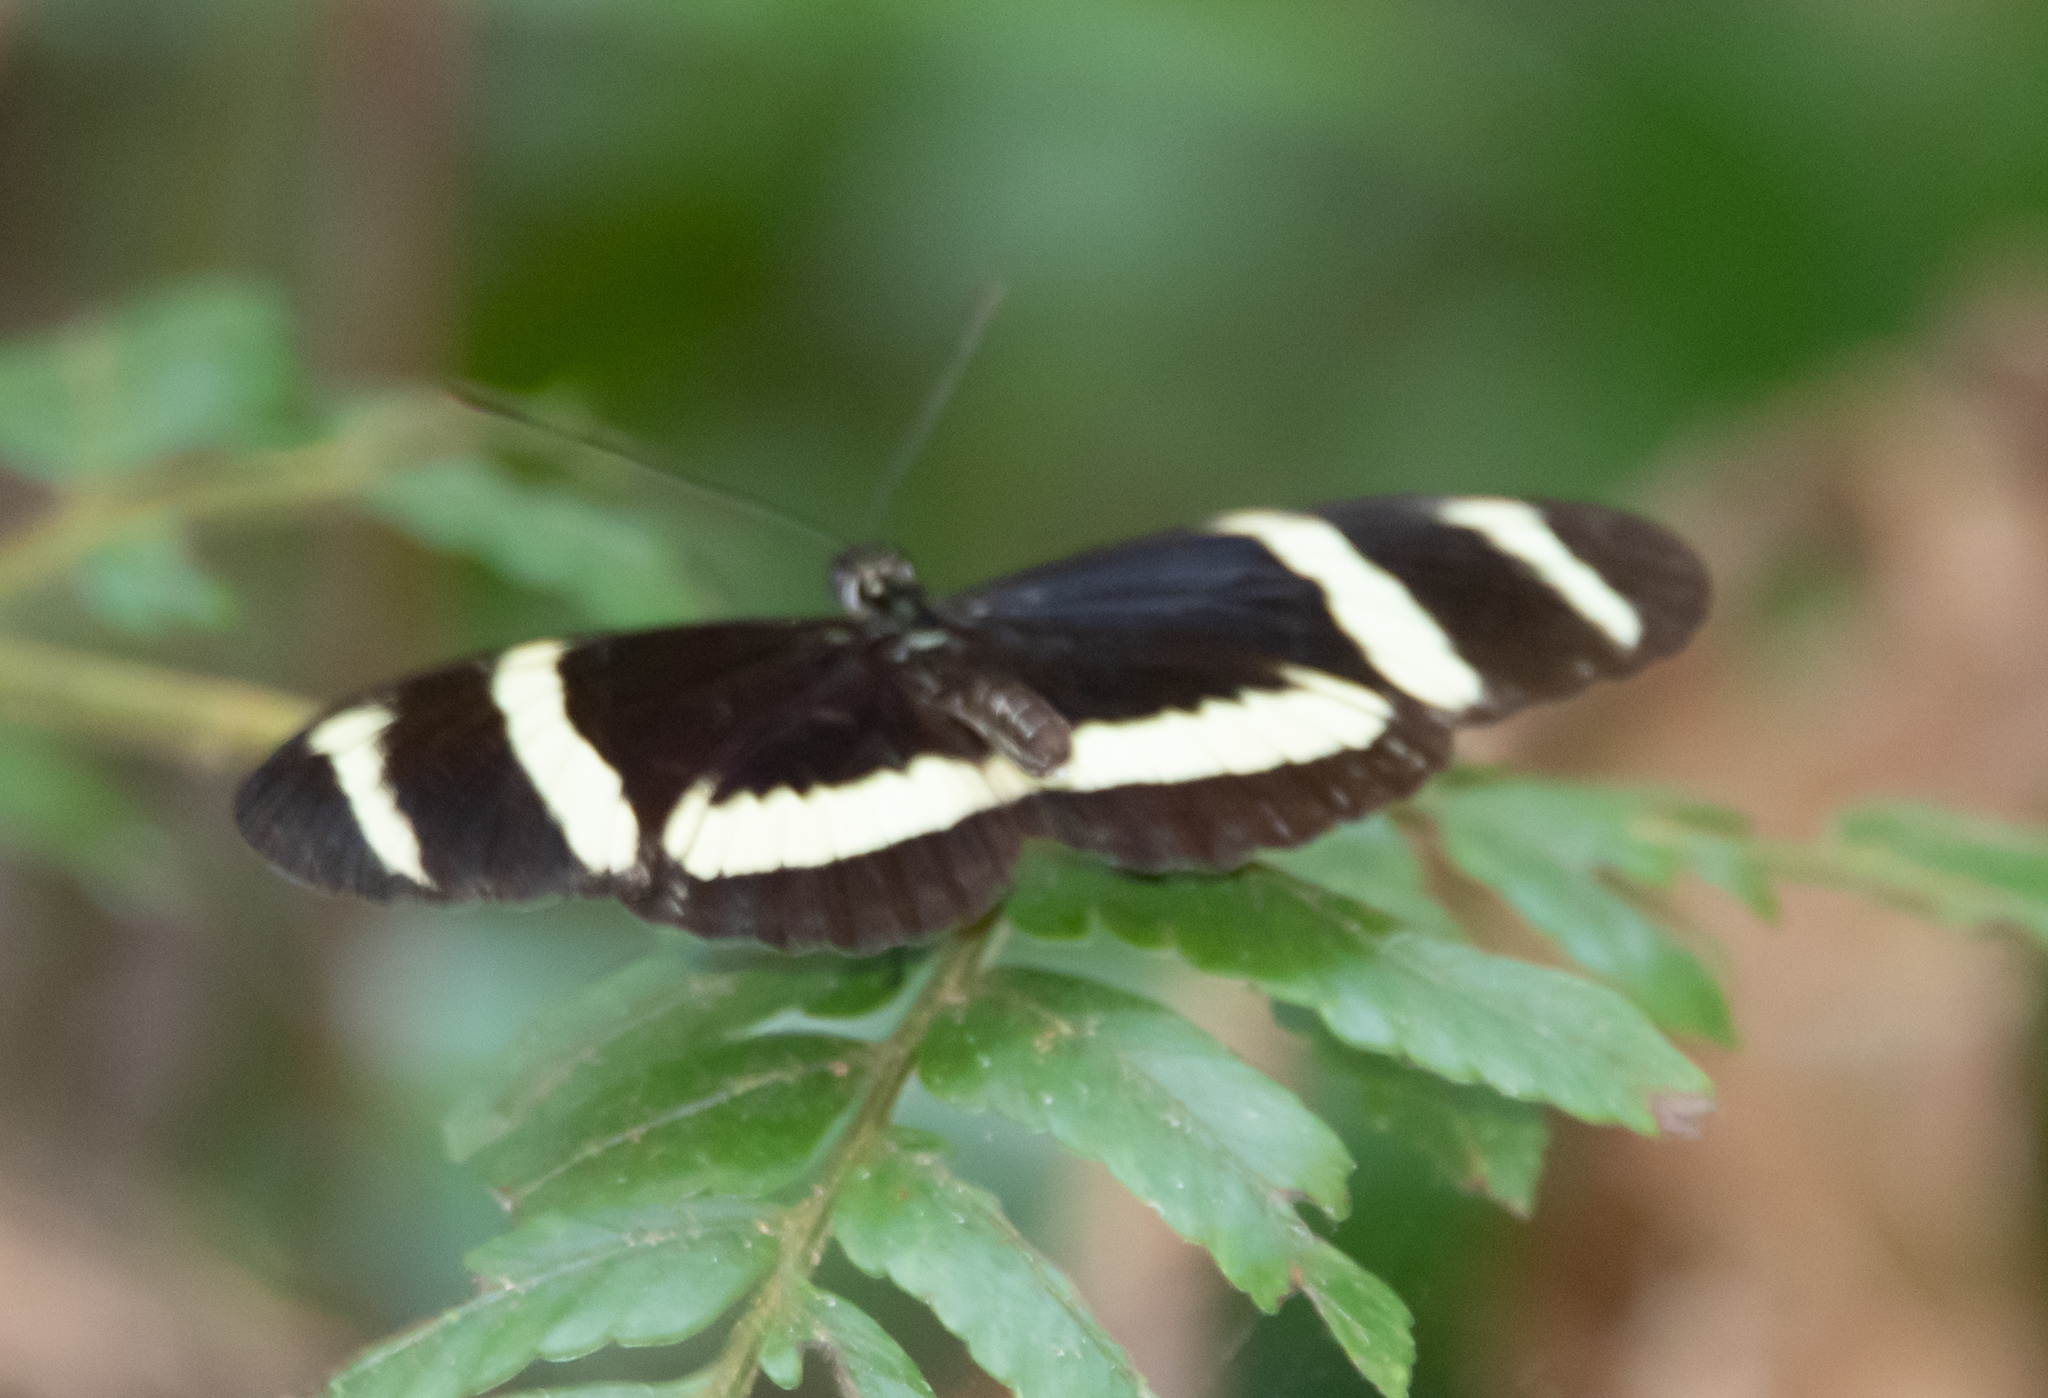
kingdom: Animalia
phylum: Arthropoda
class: Insecta
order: Lepidoptera
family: Nymphalidae
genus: Heliconius
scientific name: Heliconius pachinus
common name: Pachinus longwing
